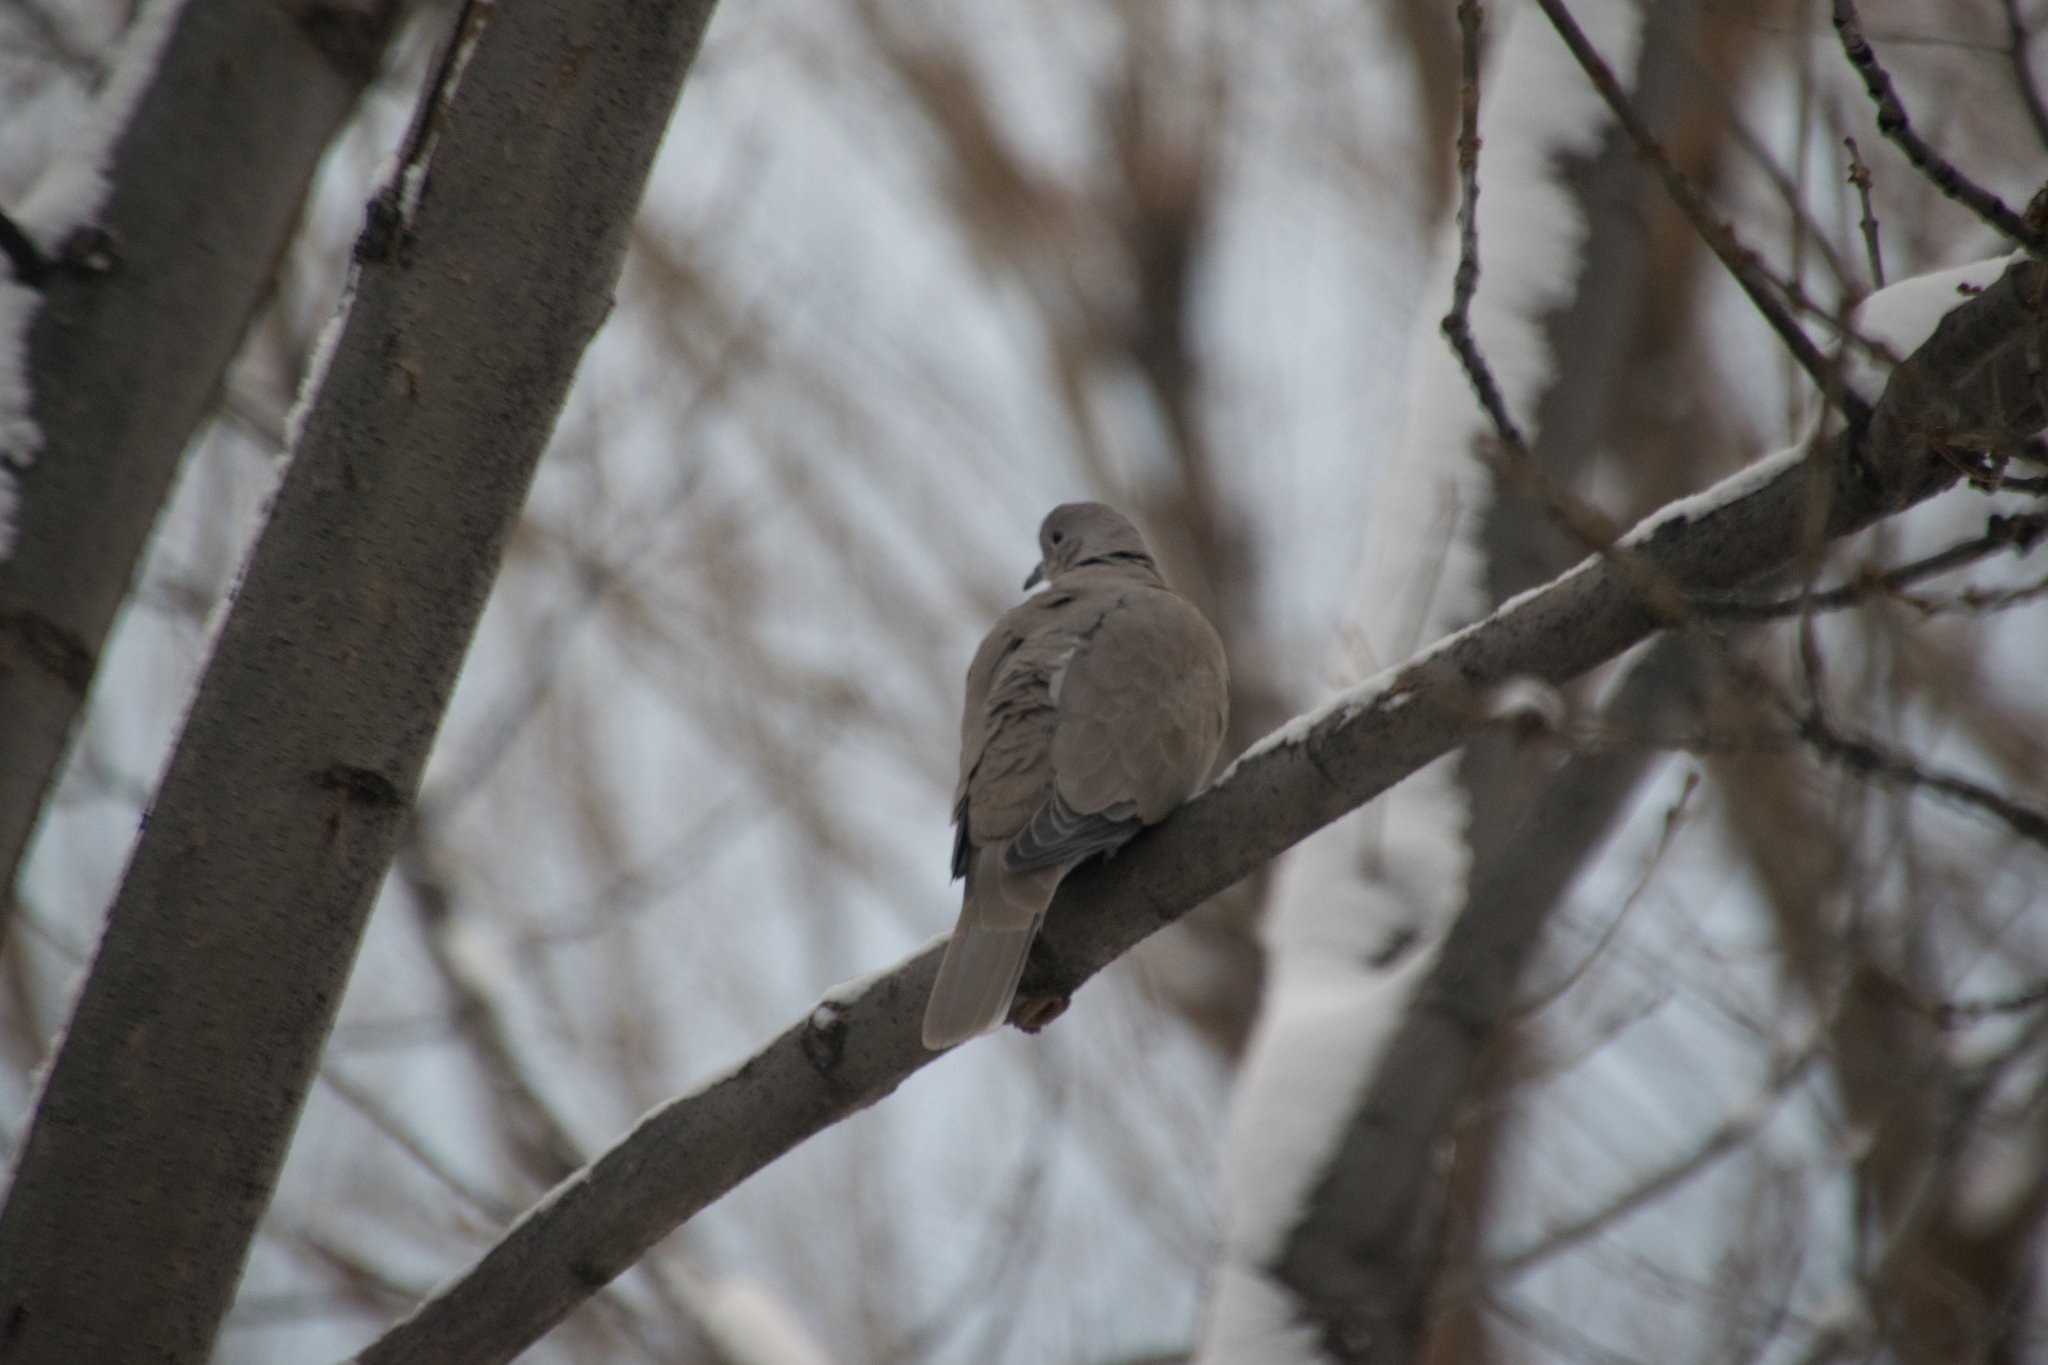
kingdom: Animalia
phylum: Chordata
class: Aves
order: Columbiformes
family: Columbidae
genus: Streptopelia
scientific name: Streptopelia decaocto
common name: Eurasian collared dove
